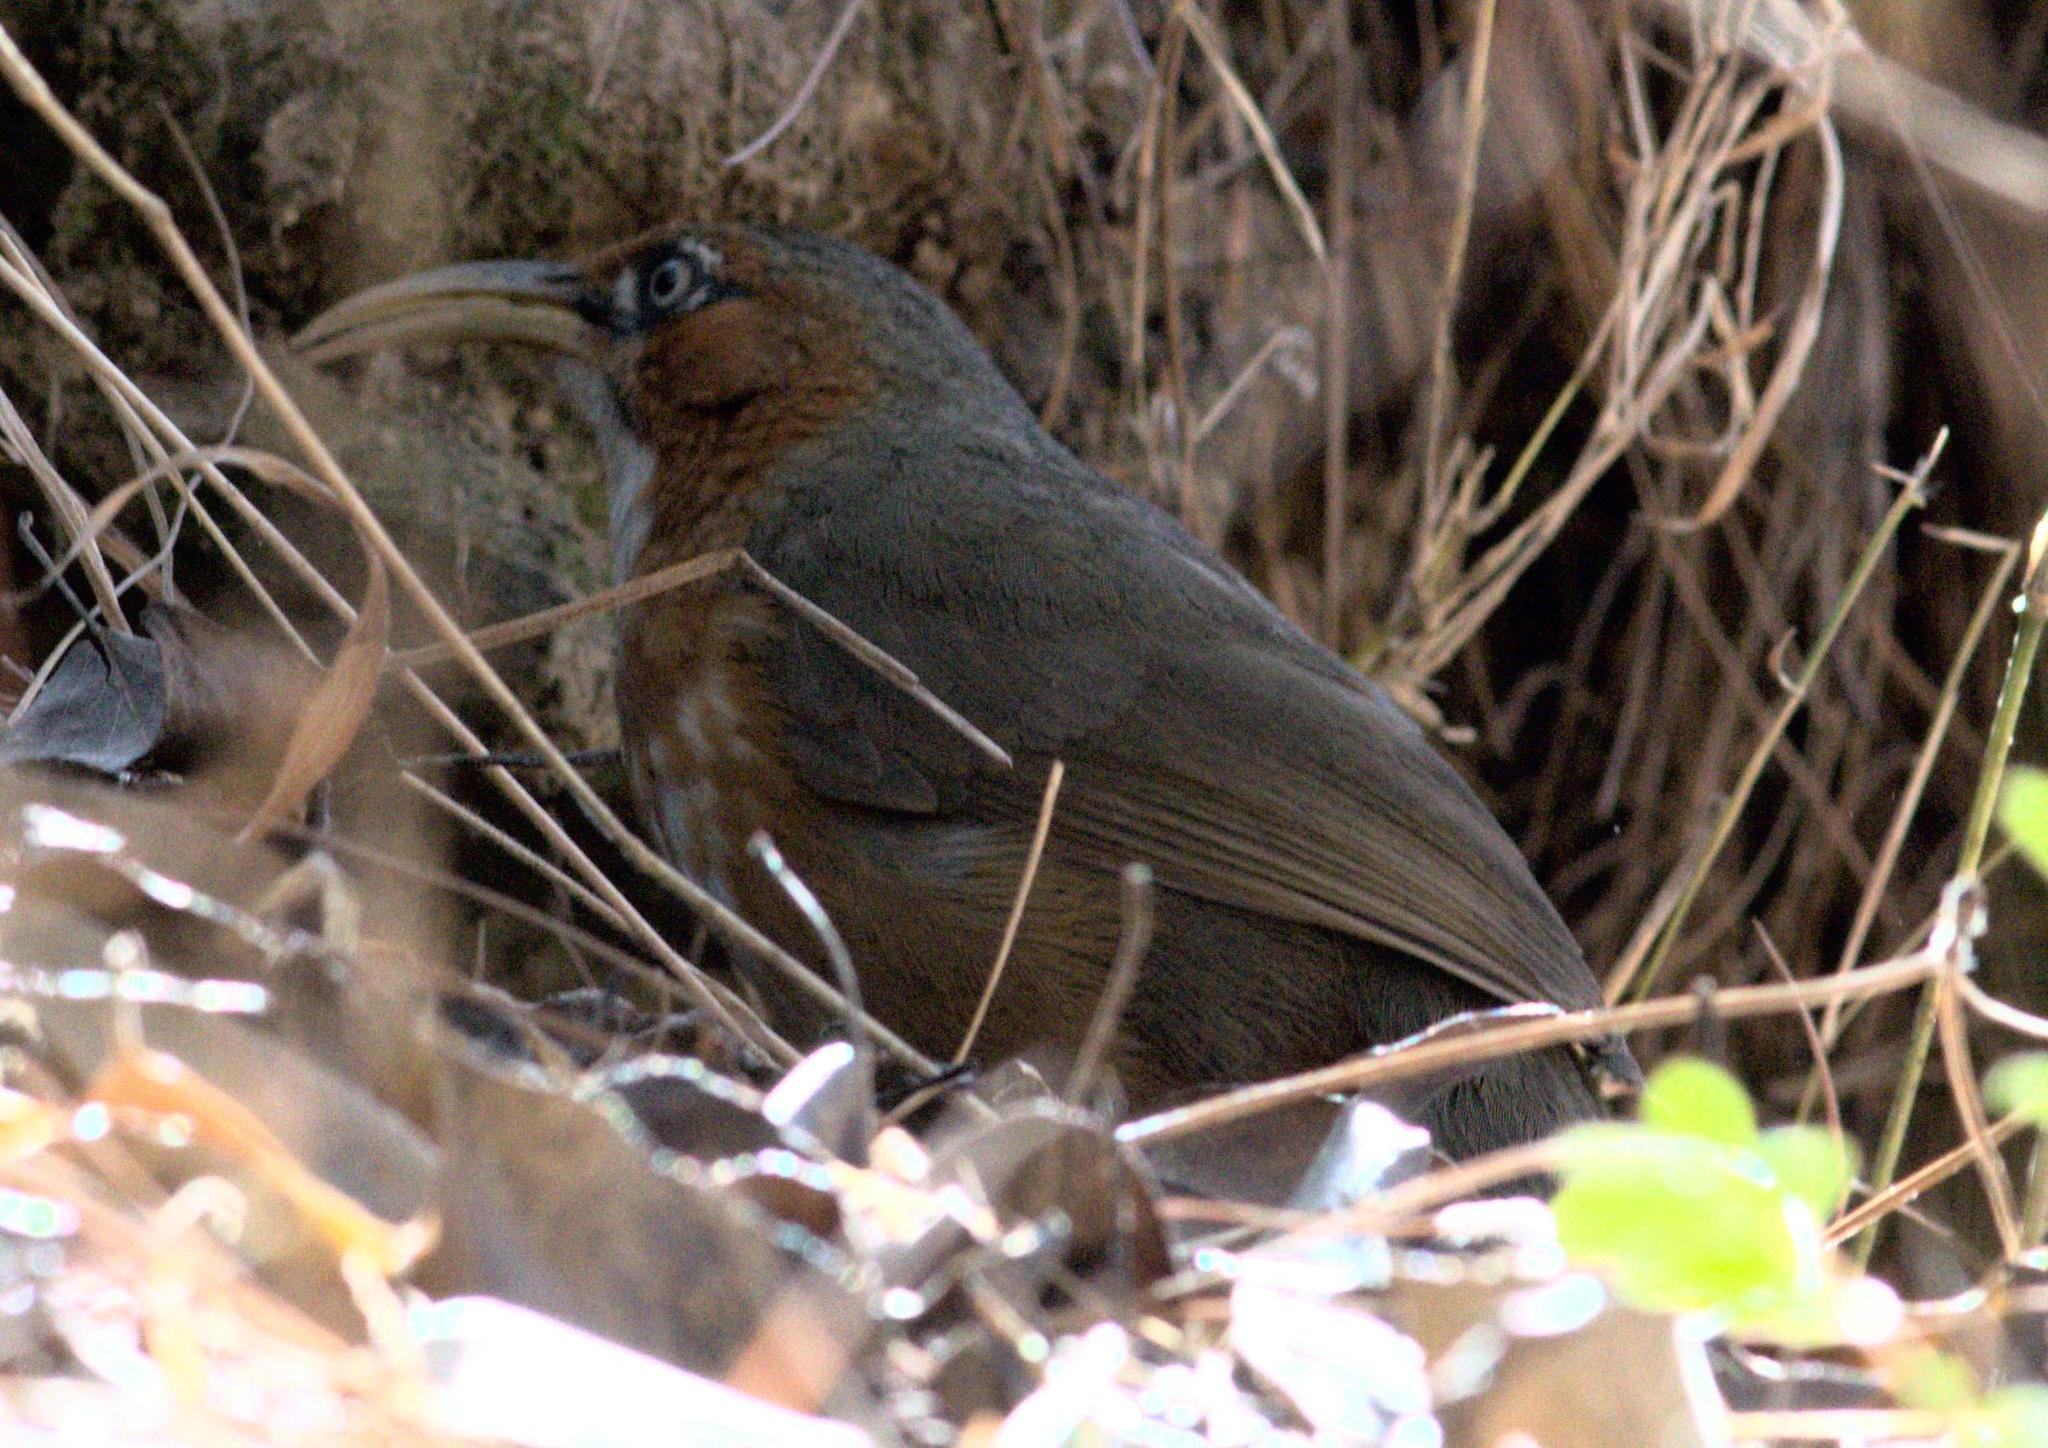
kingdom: Animalia
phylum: Chordata
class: Aves
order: Passeriformes
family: Timaliidae
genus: Pomatorhinus
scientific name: Pomatorhinus erythrogenys
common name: Rusty-cheeked scimitar babbler
